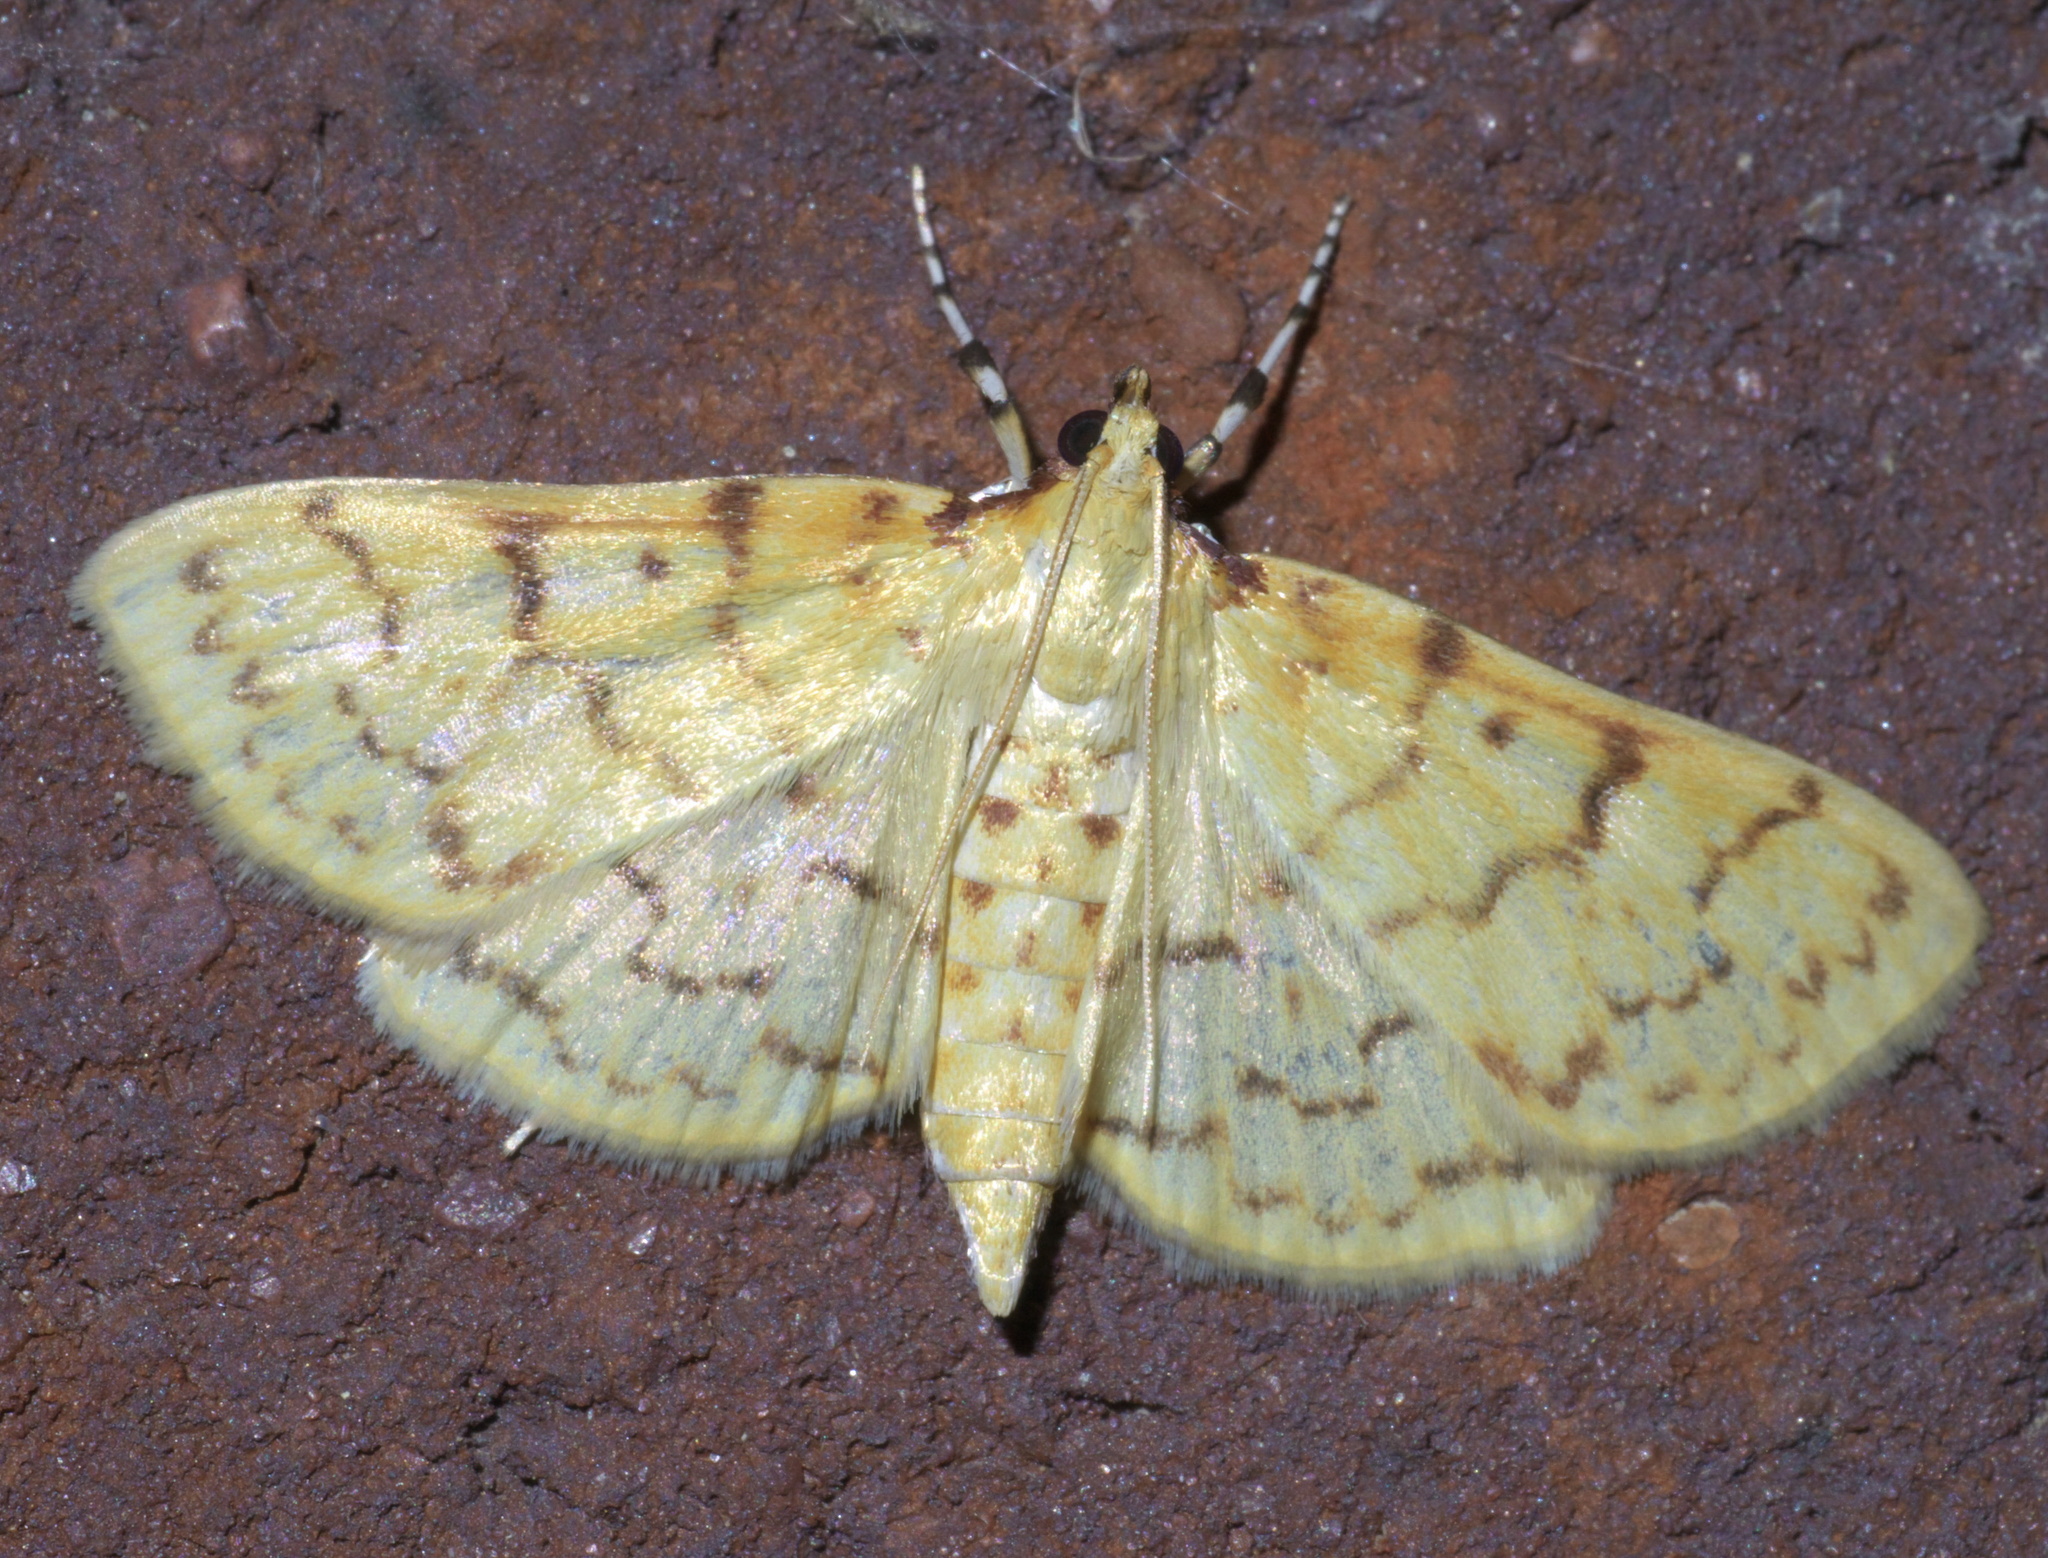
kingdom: Animalia
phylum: Arthropoda
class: Insecta
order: Lepidoptera
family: Crambidae
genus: Polygrammodes
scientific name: Polygrammodes flavidalis
